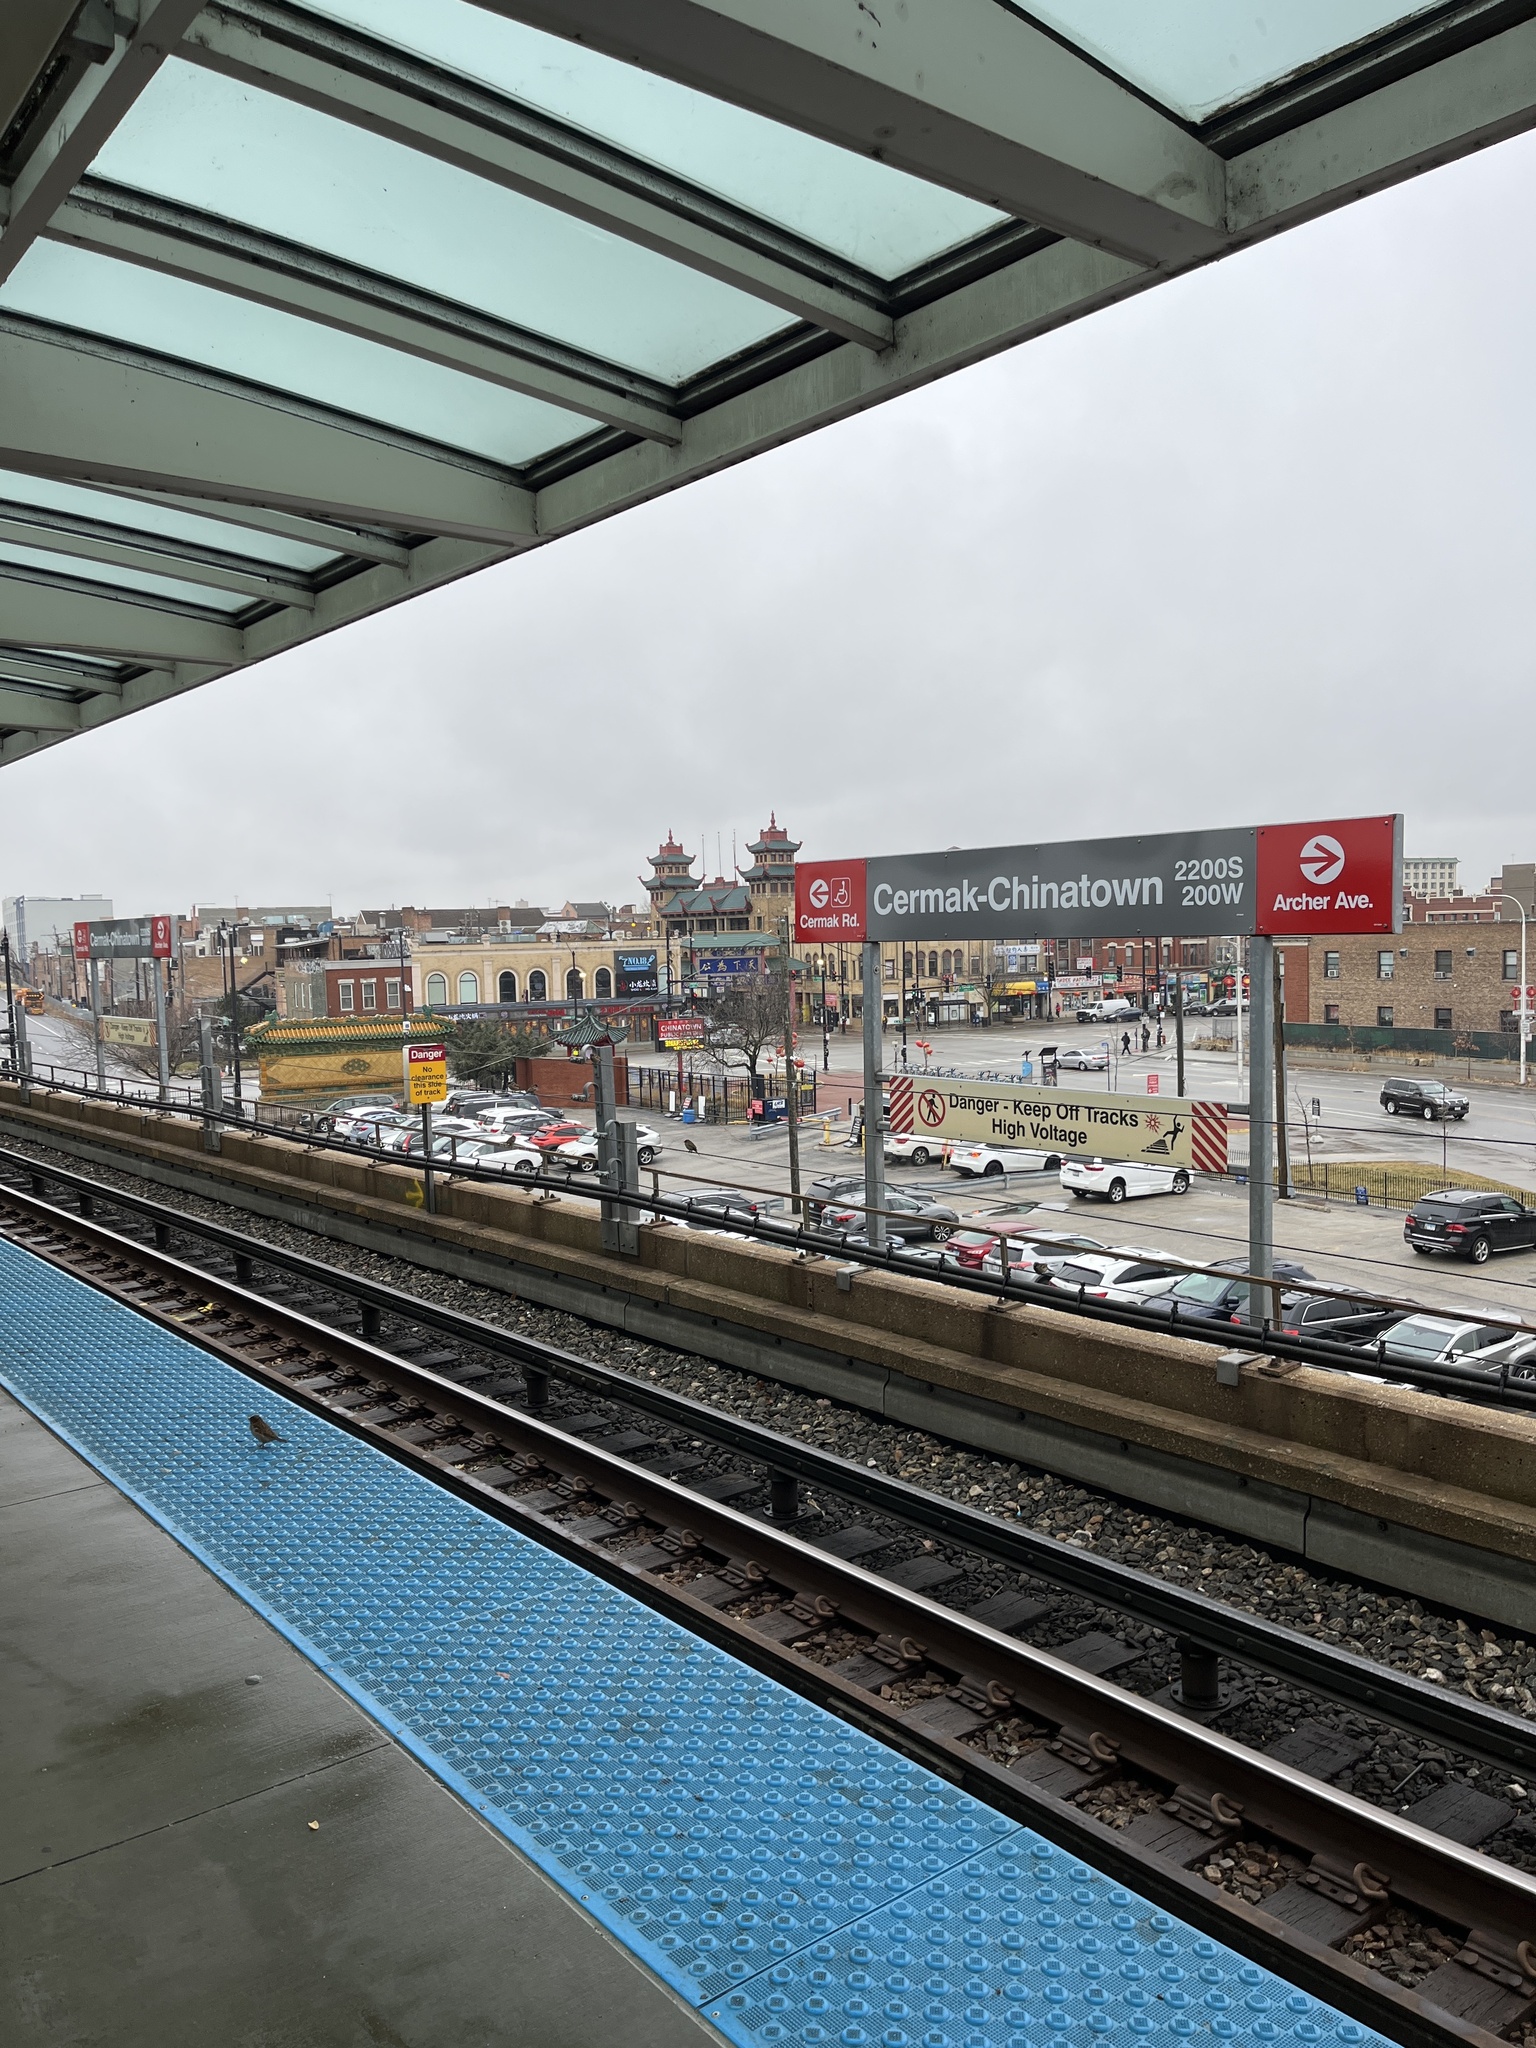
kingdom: Animalia
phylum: Chordata
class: Aves
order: Passeriformes
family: Passeridae
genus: Passer
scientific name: Passer domesticus
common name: House sparrow
